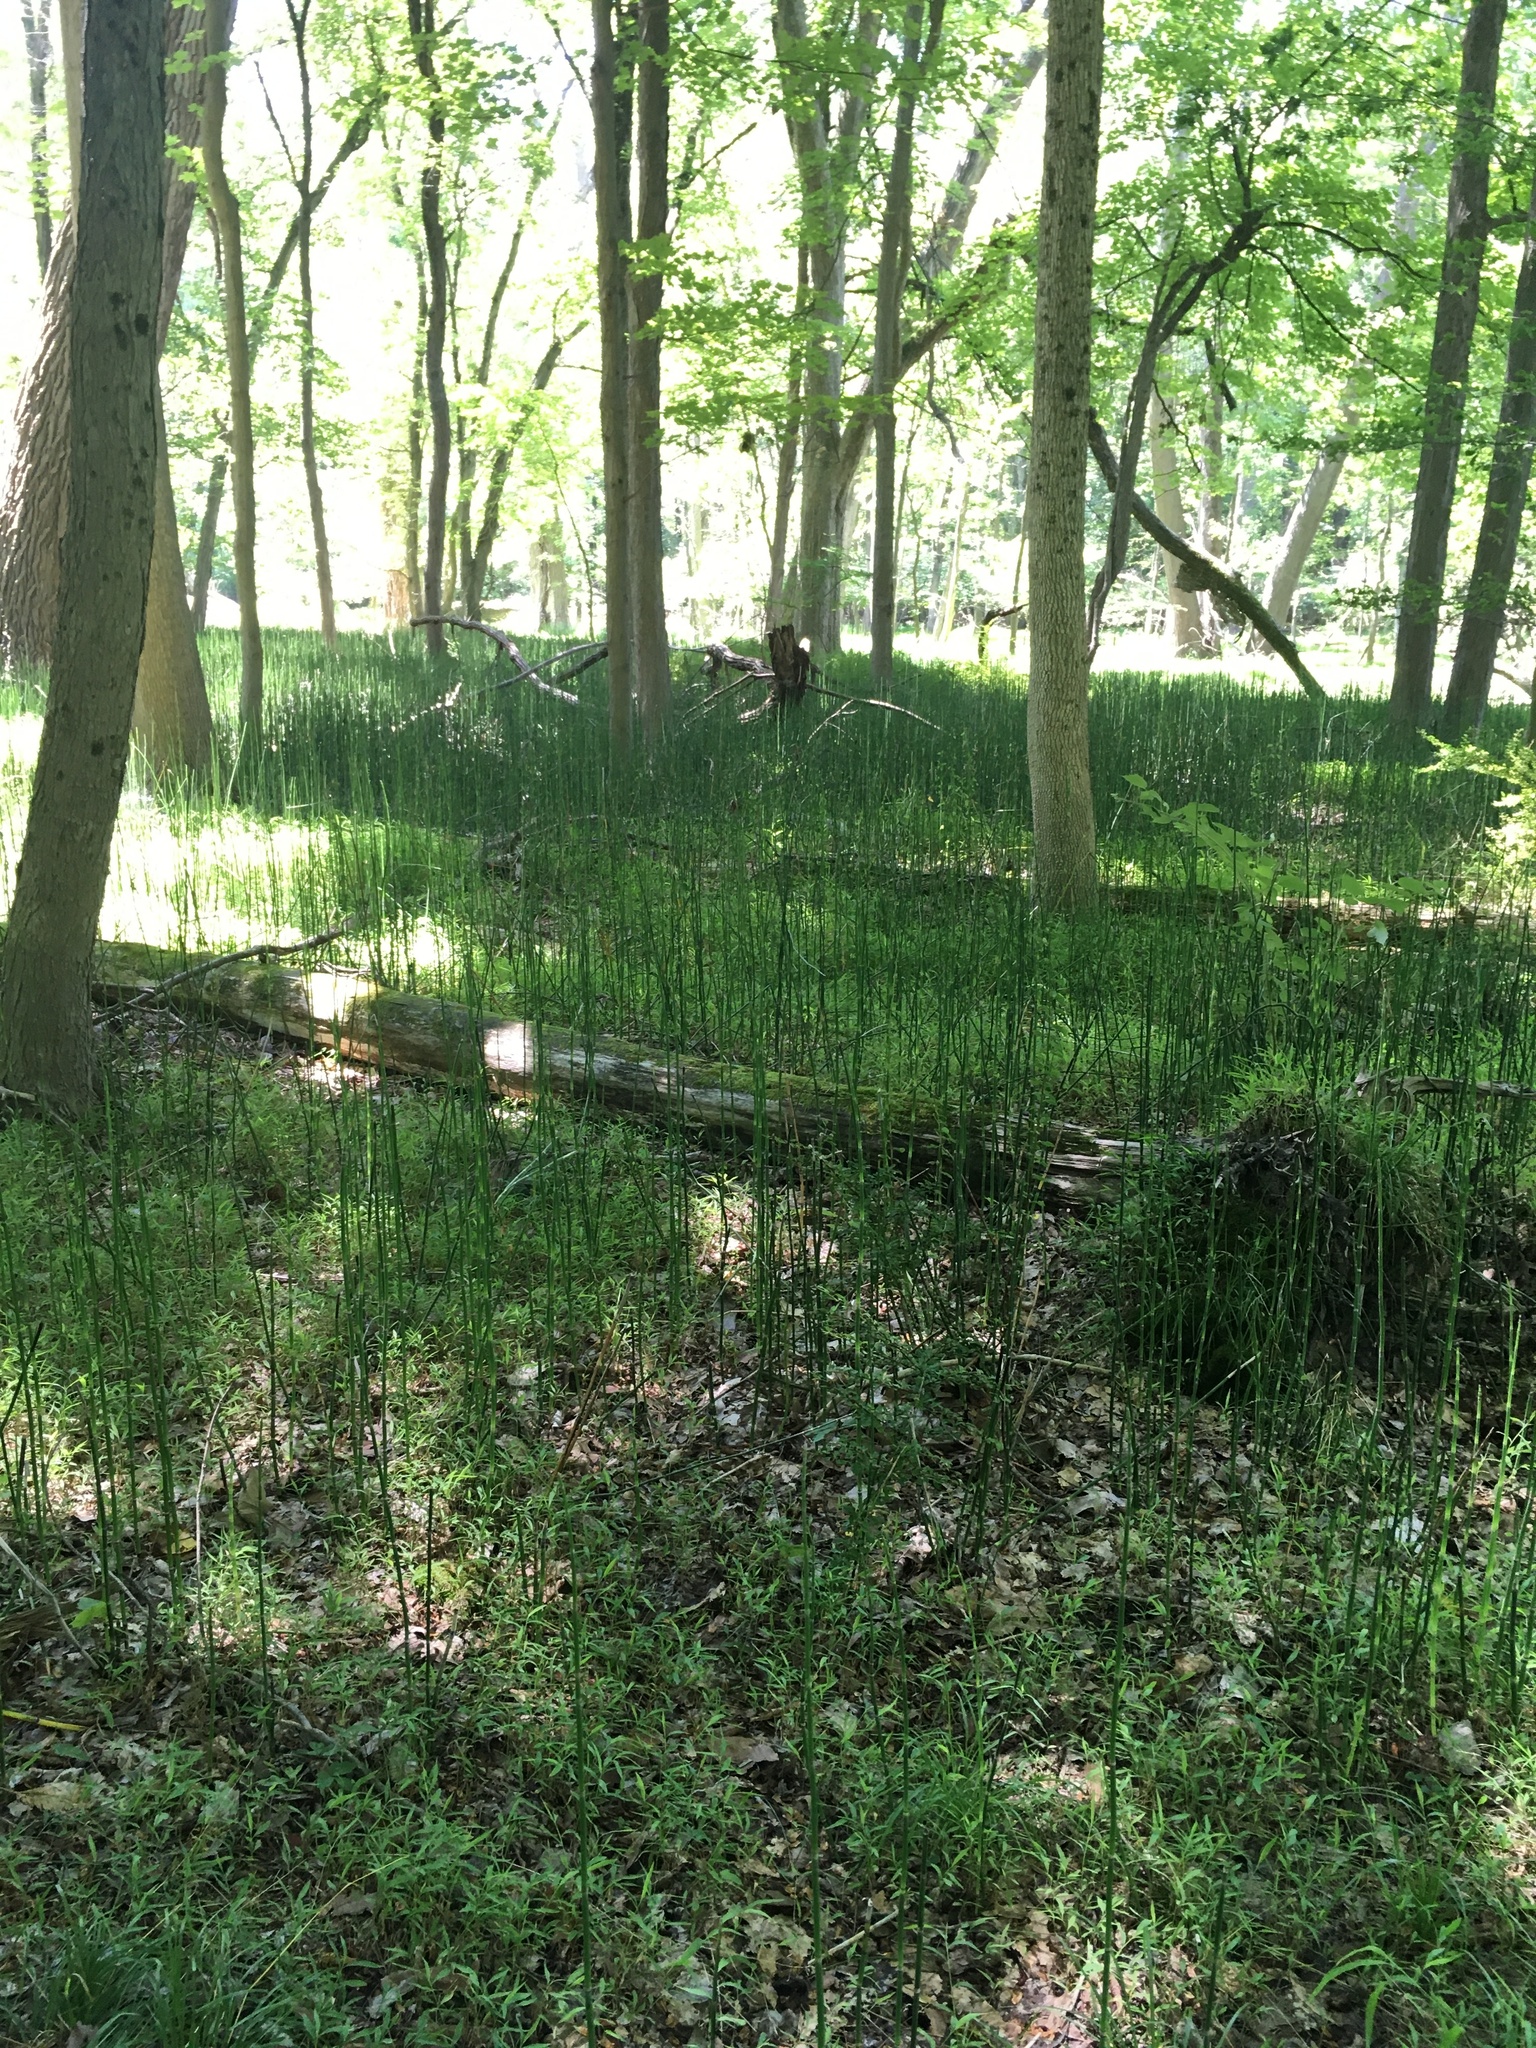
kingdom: Plantae
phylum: Tracheophyta
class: Liliopsida
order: Poales
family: Poaceae
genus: Phragmites
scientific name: Phragmites australis
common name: Common reed
